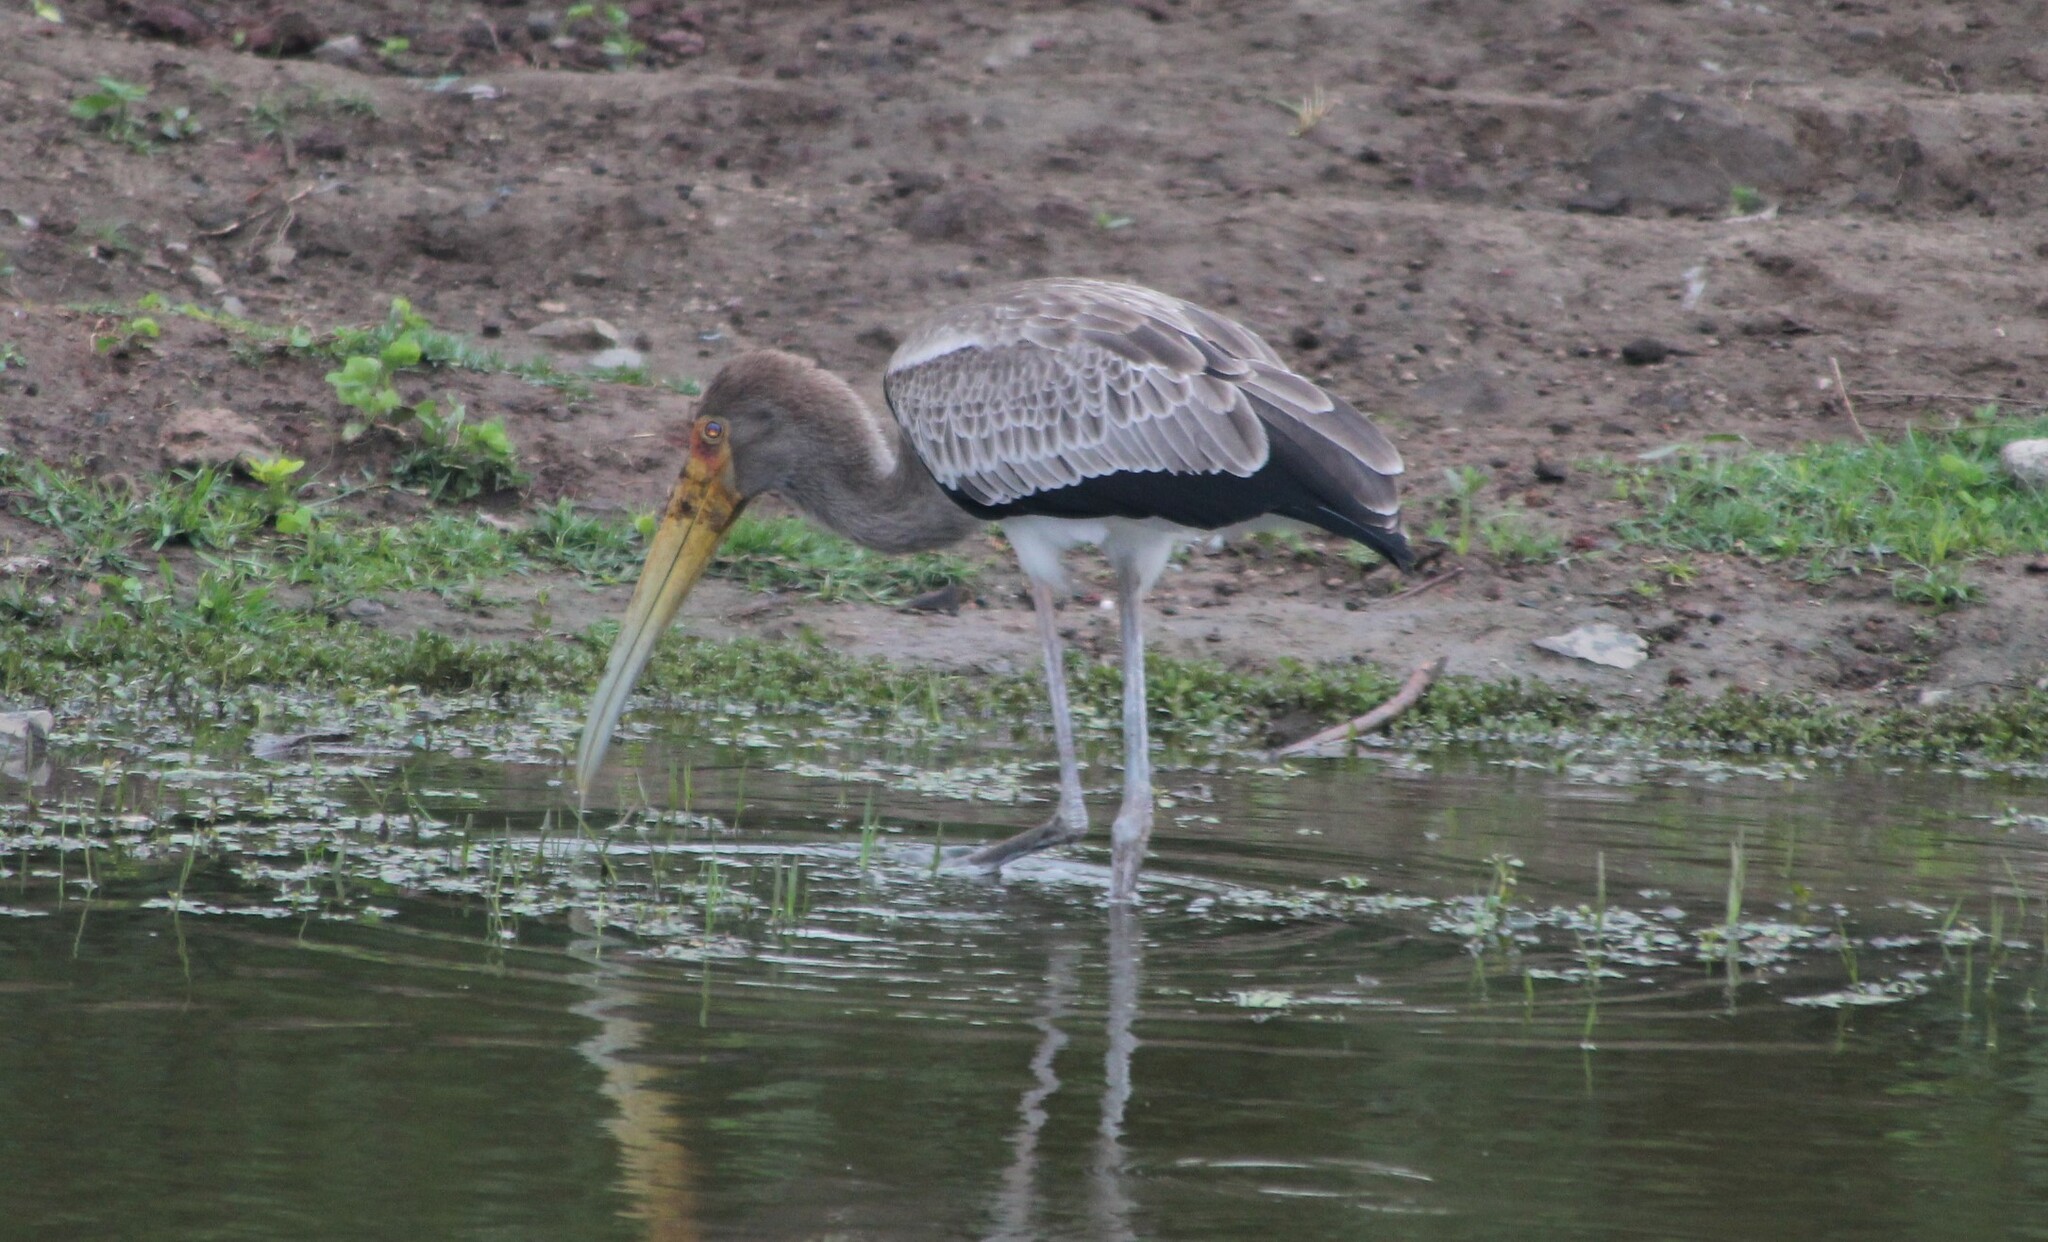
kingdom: Animalia
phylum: Chordata
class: Aves
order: Ciconiiformes
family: Ciconiidae
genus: Mycteria
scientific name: Mycteria ibis
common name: Yellow-billed stork
